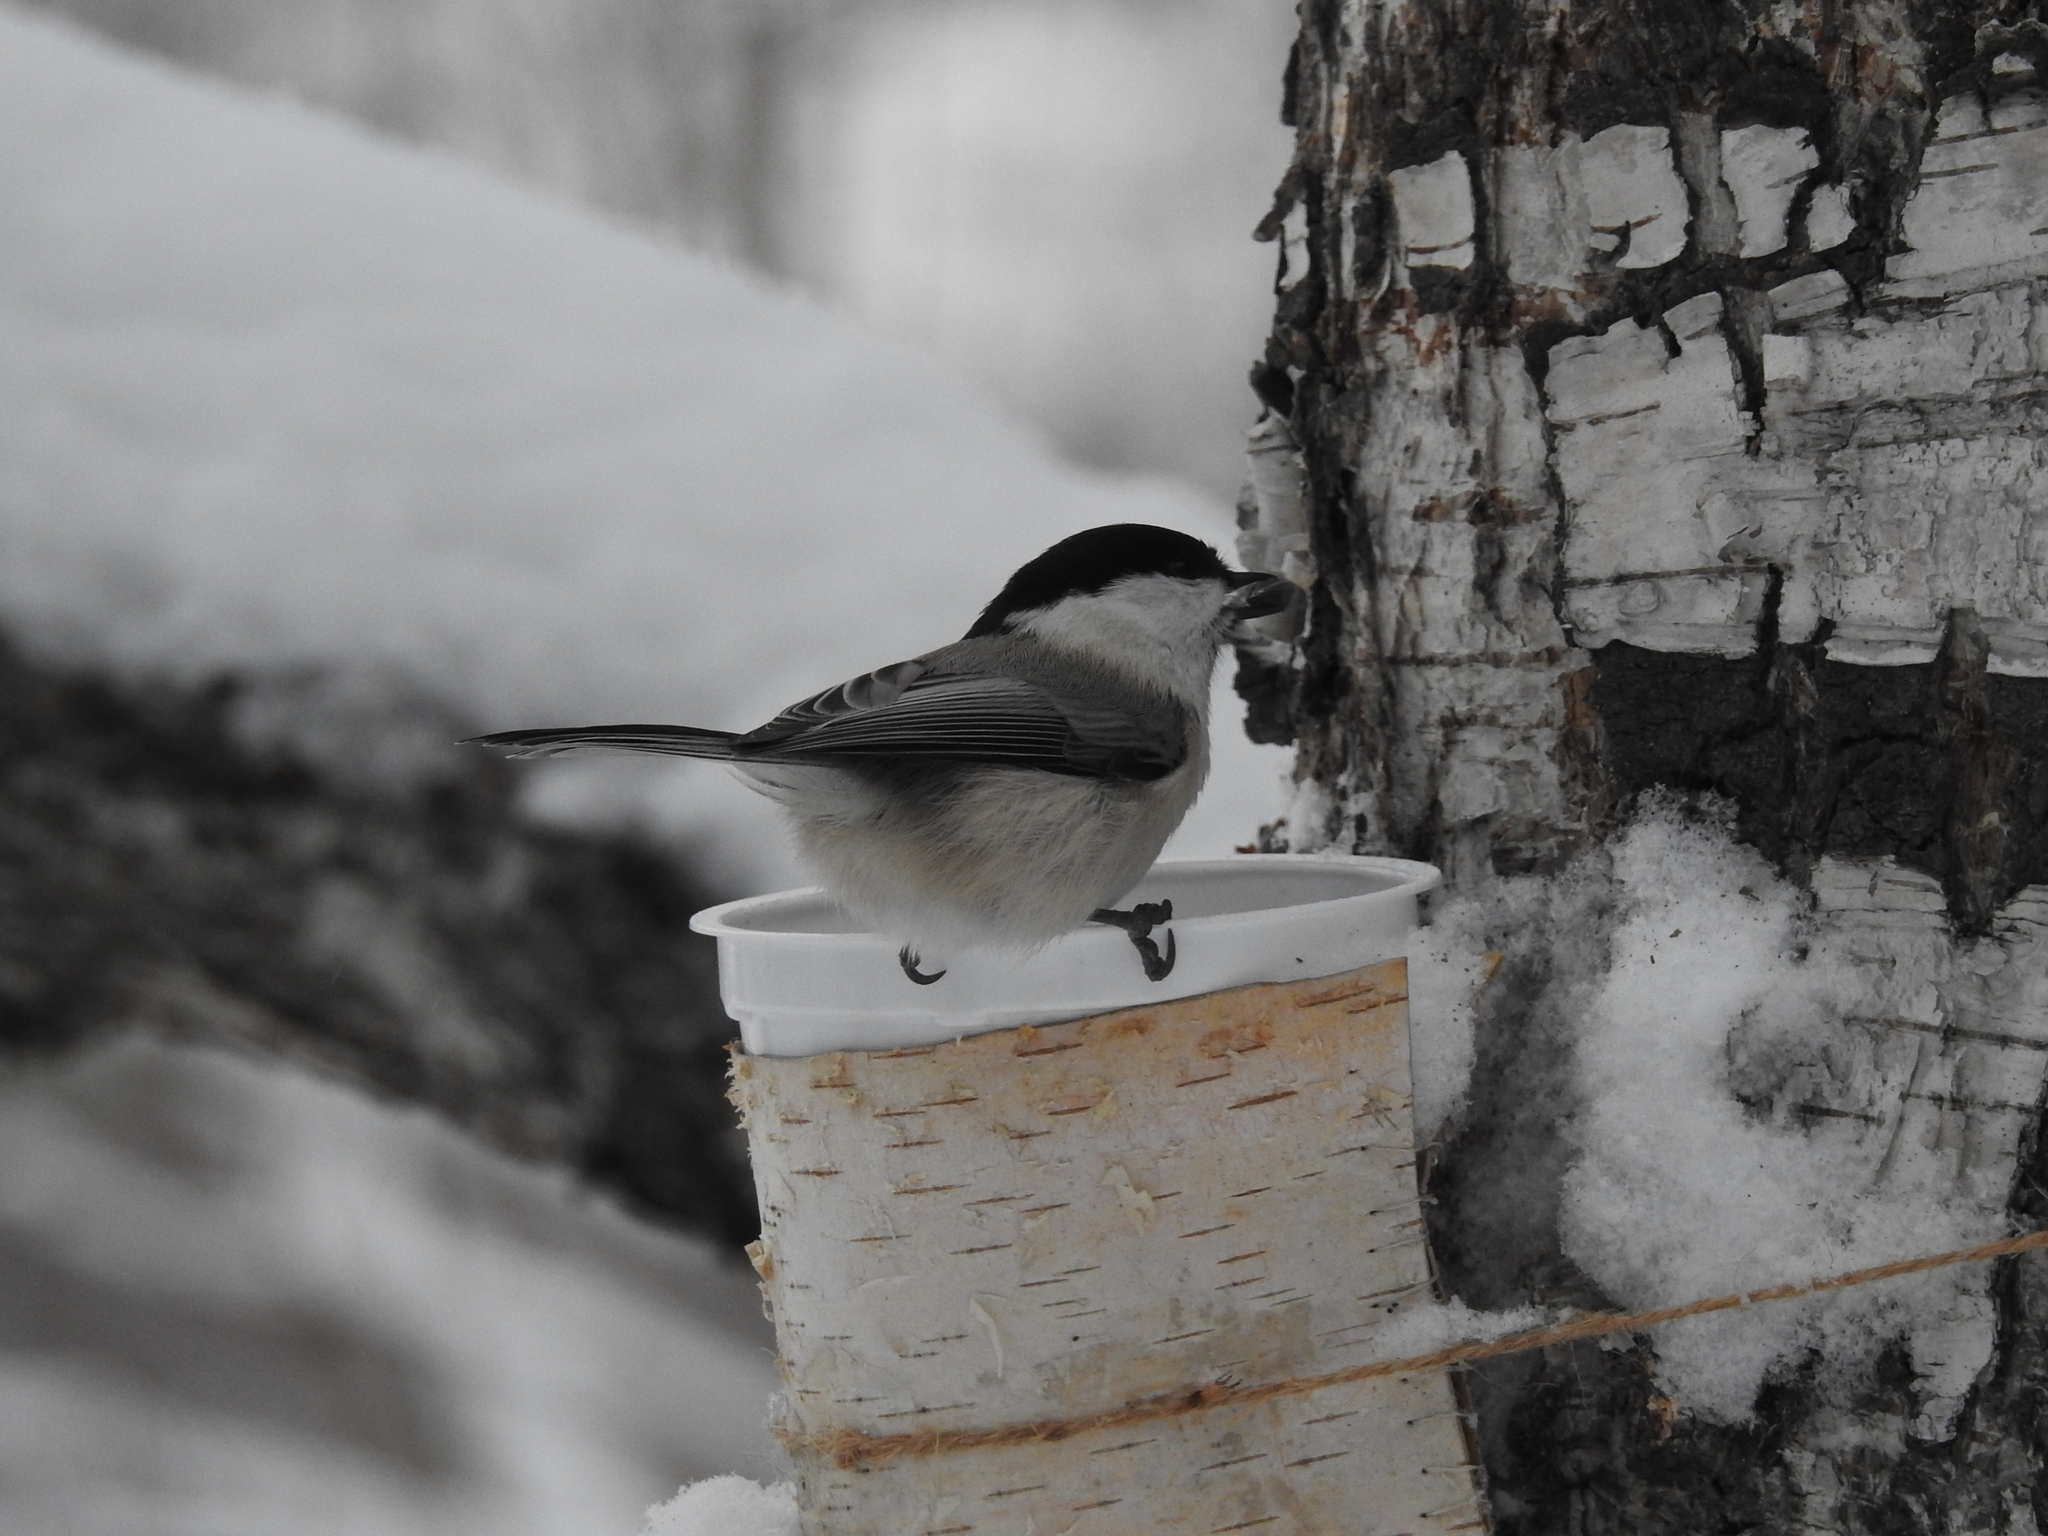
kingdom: Animalia
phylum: Chordata
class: Aves
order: Passeriformes
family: Paridae
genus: Poecile
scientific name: Poecile montanus
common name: Willow tit
